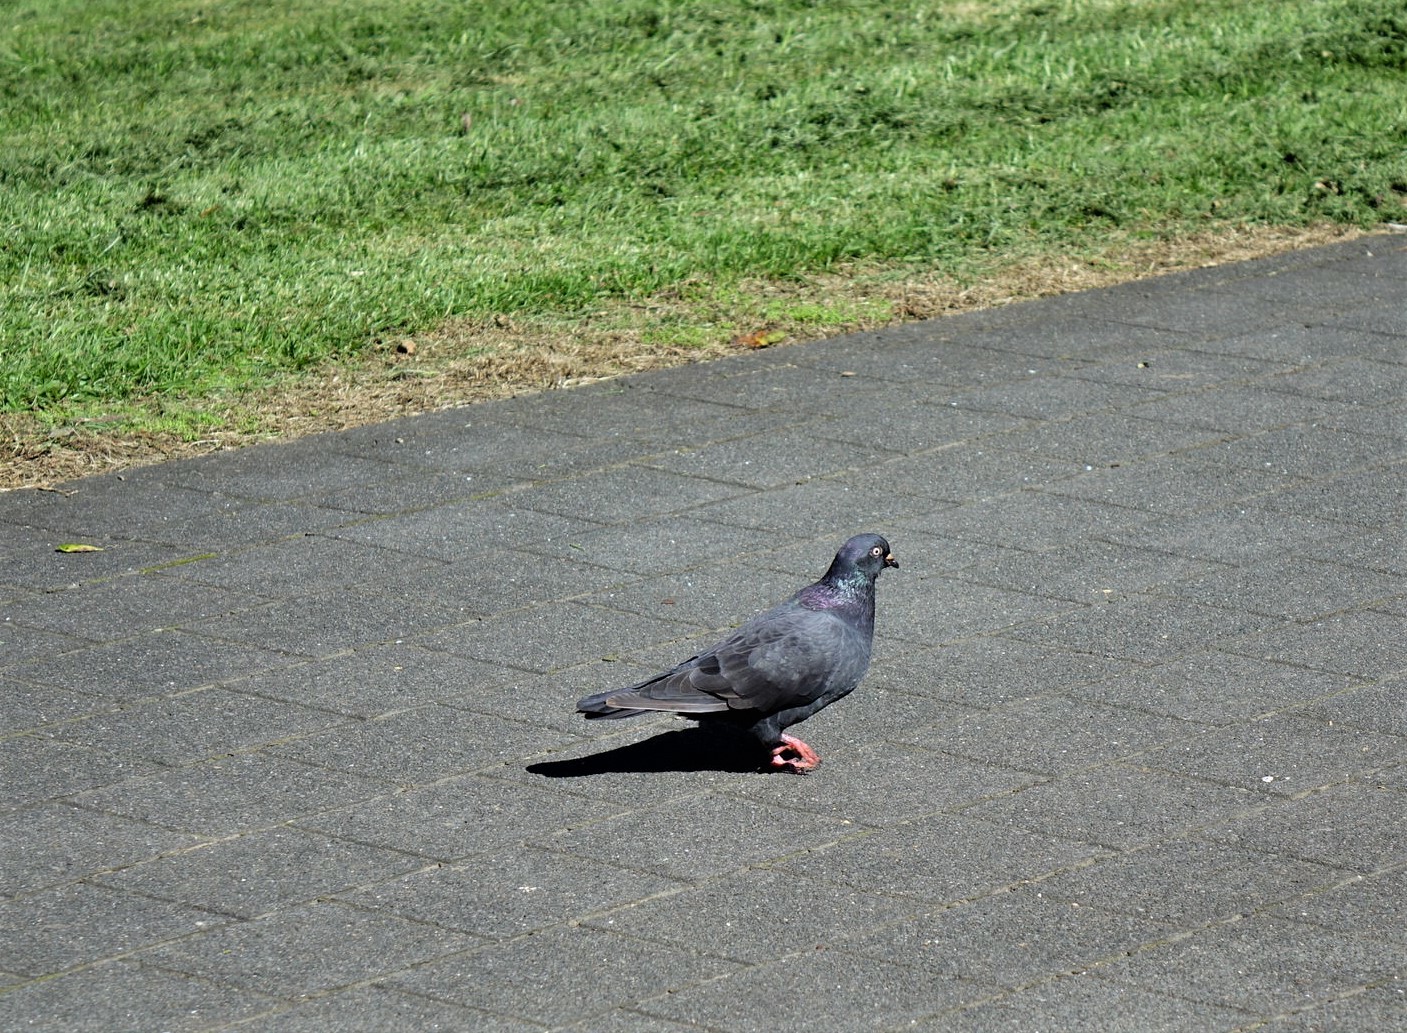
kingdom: Animalia
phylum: Chordata
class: Aves
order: Columbiformes
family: Columbidae
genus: Columba
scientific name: Columba livia
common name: Rock pigeon
